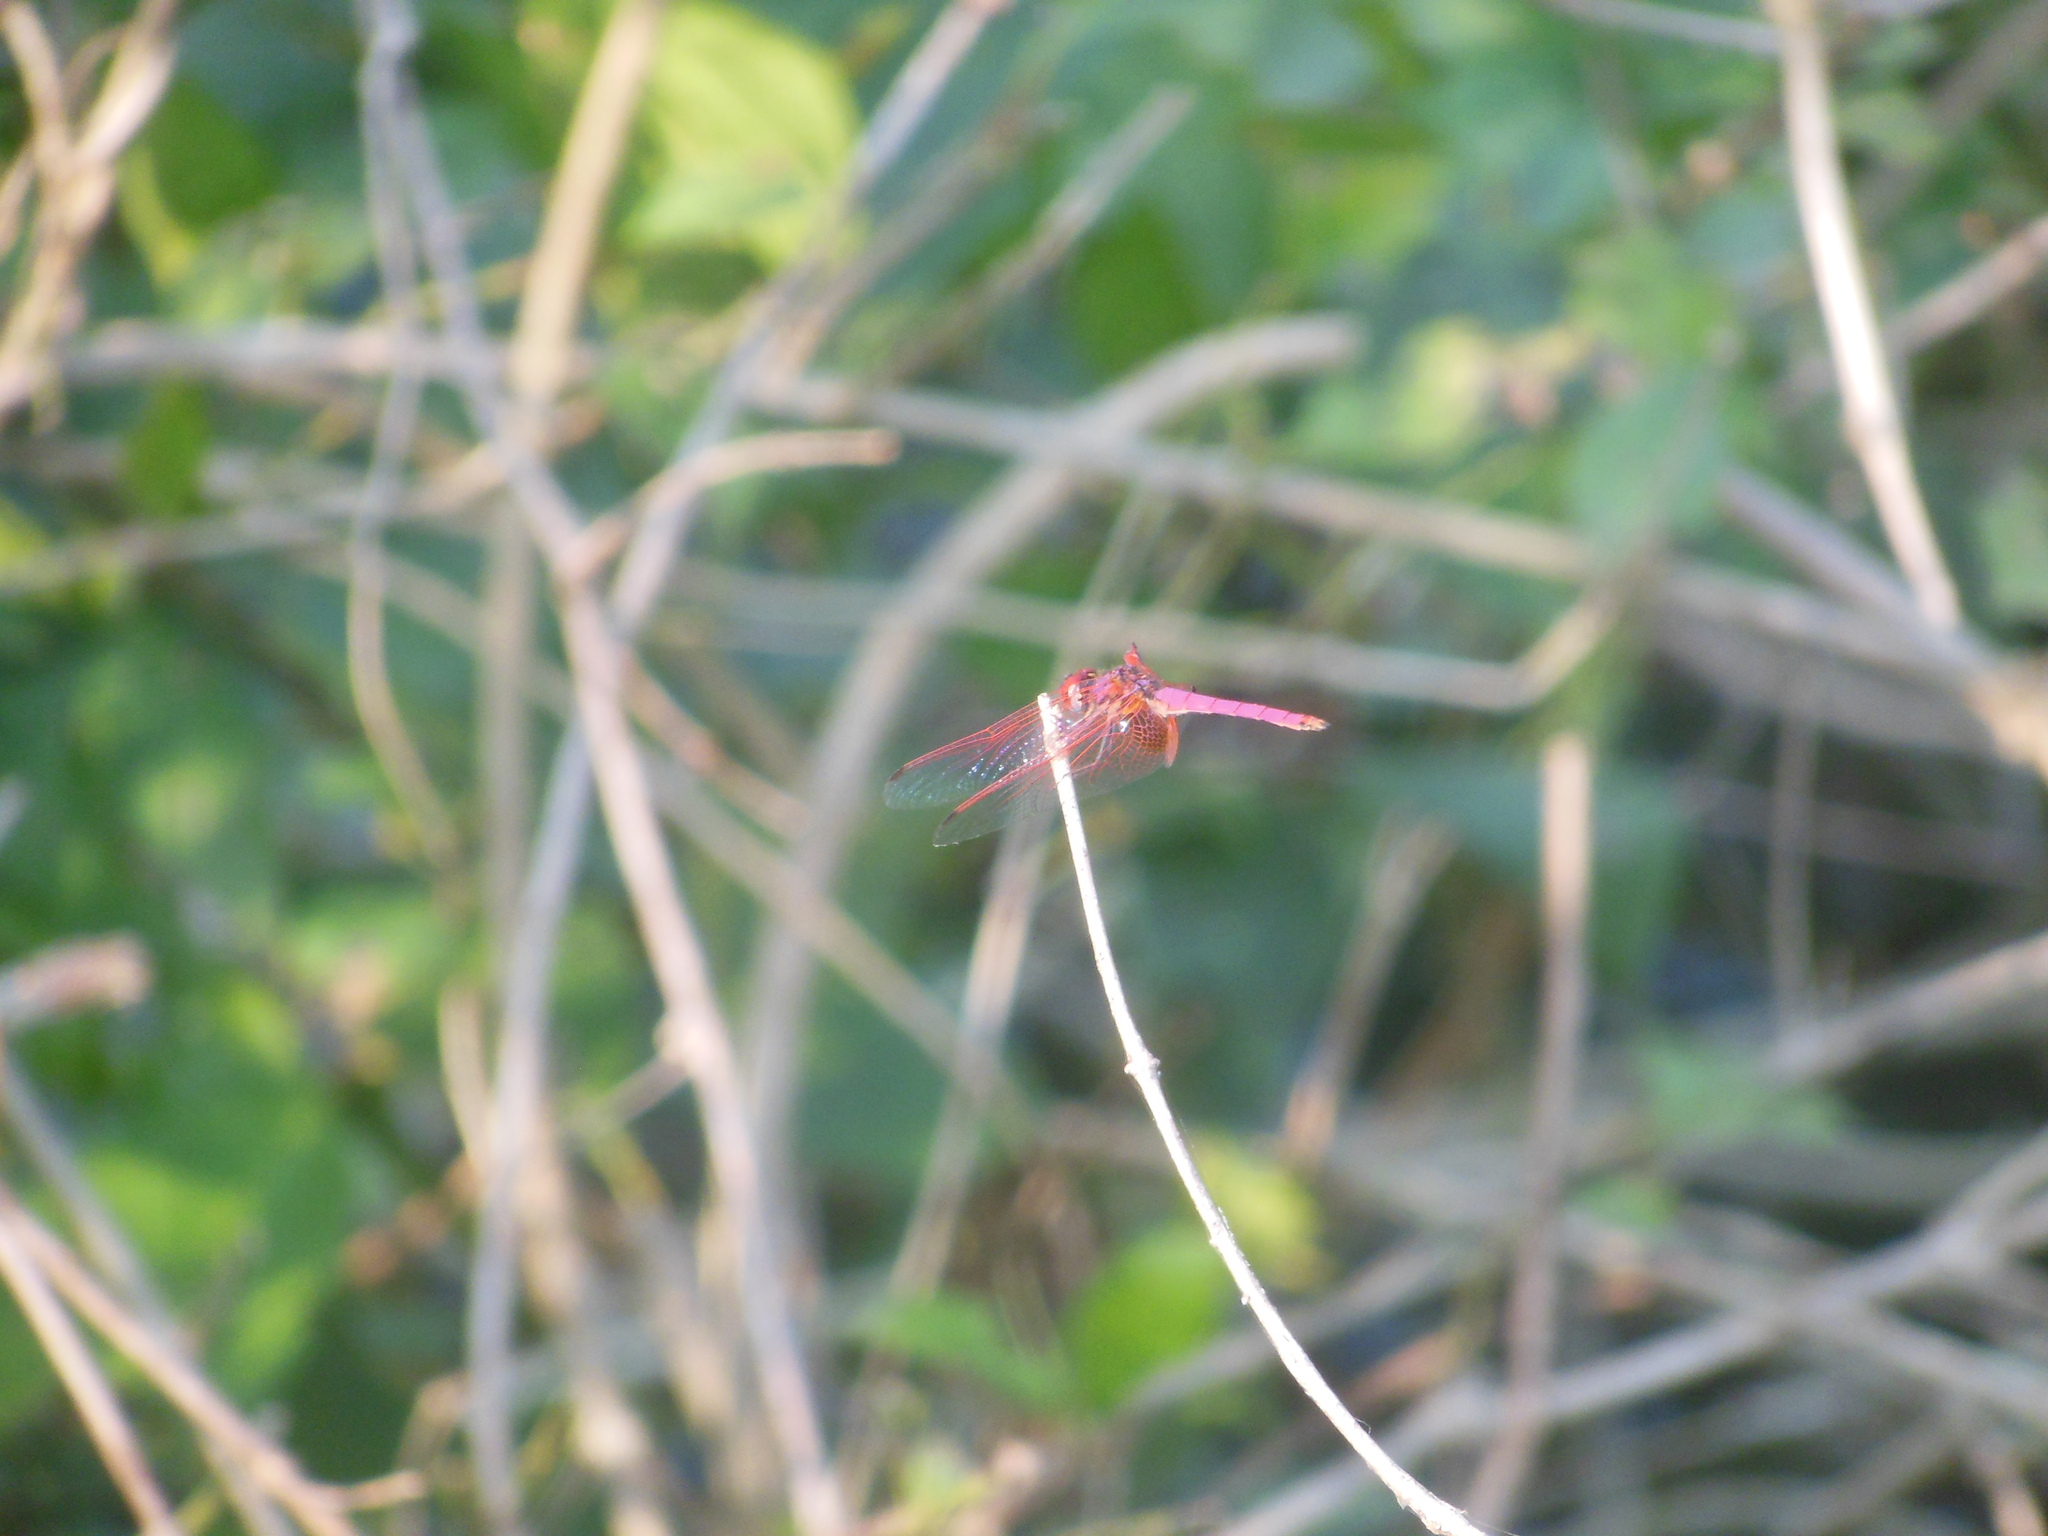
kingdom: Animalia
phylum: Arthropoda
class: Insecta
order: Odonata
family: Libellulidae
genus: Trithemis
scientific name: Trithemis aurora
